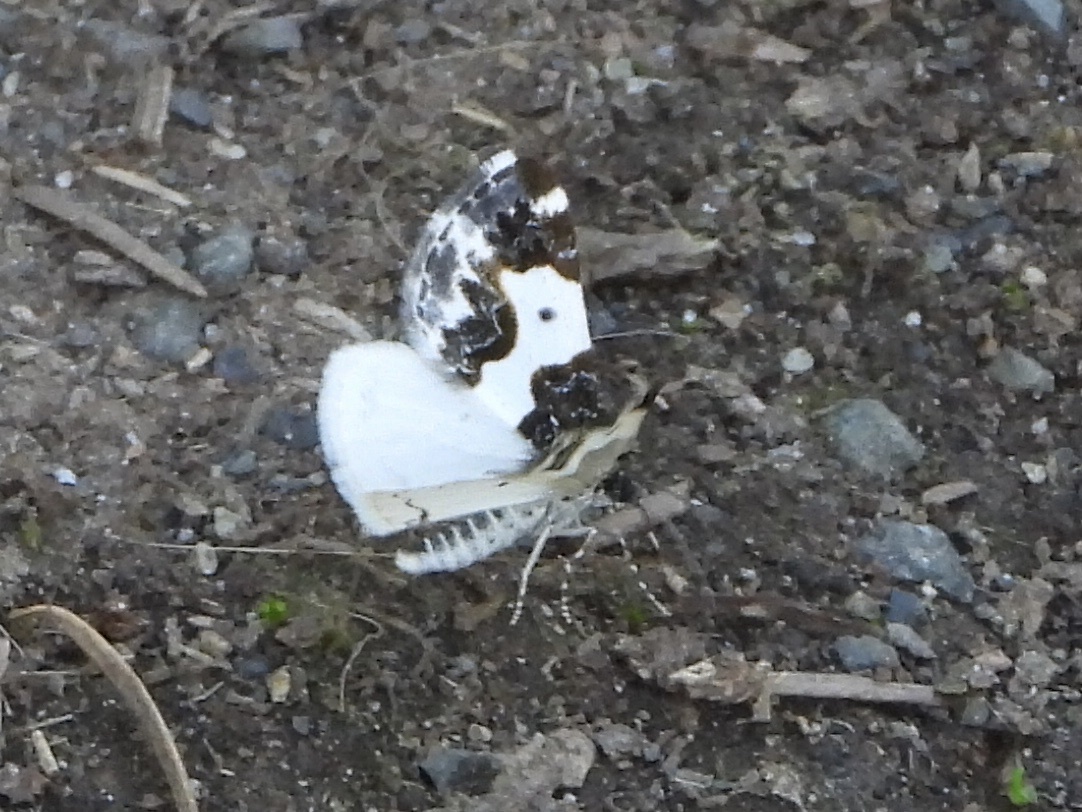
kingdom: Animalia
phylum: Arthropoda
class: Insecta
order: Lepidoptera
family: Geometridae
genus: Mesoleuca
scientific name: Mesoleuca gratulata
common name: Half-white carpet moth
